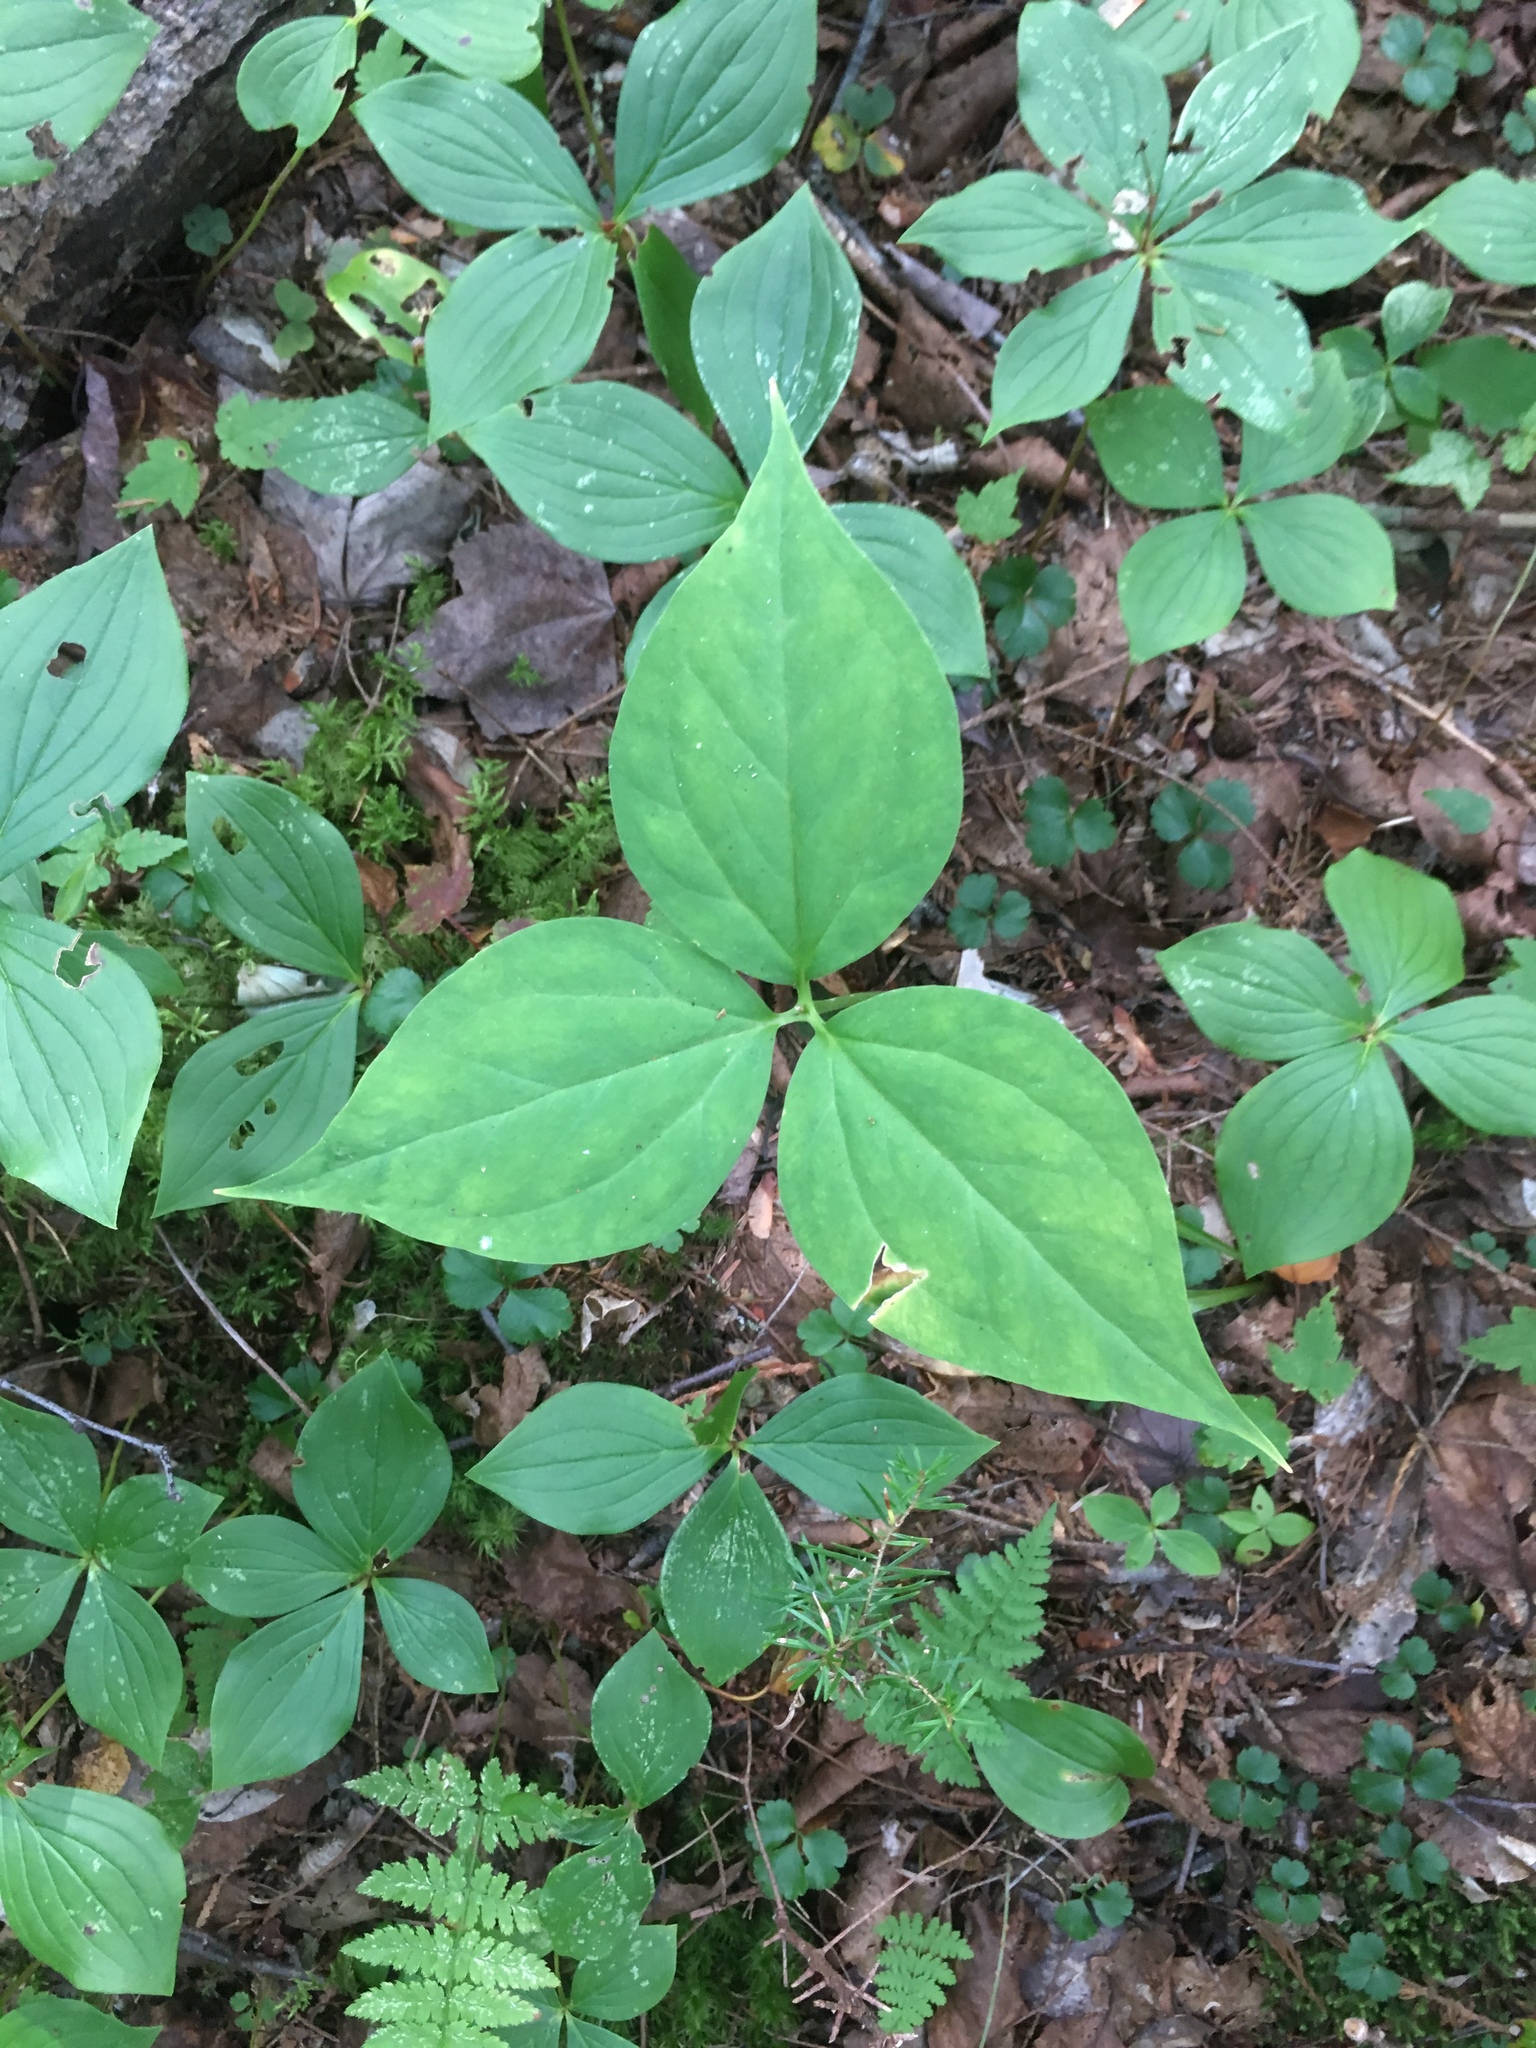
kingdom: Plantae
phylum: Tracheophyta
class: Liliopsida
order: Liliales
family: Melanthiaceae
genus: Trillium
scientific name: Trillium undulatum
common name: Paint trillium
